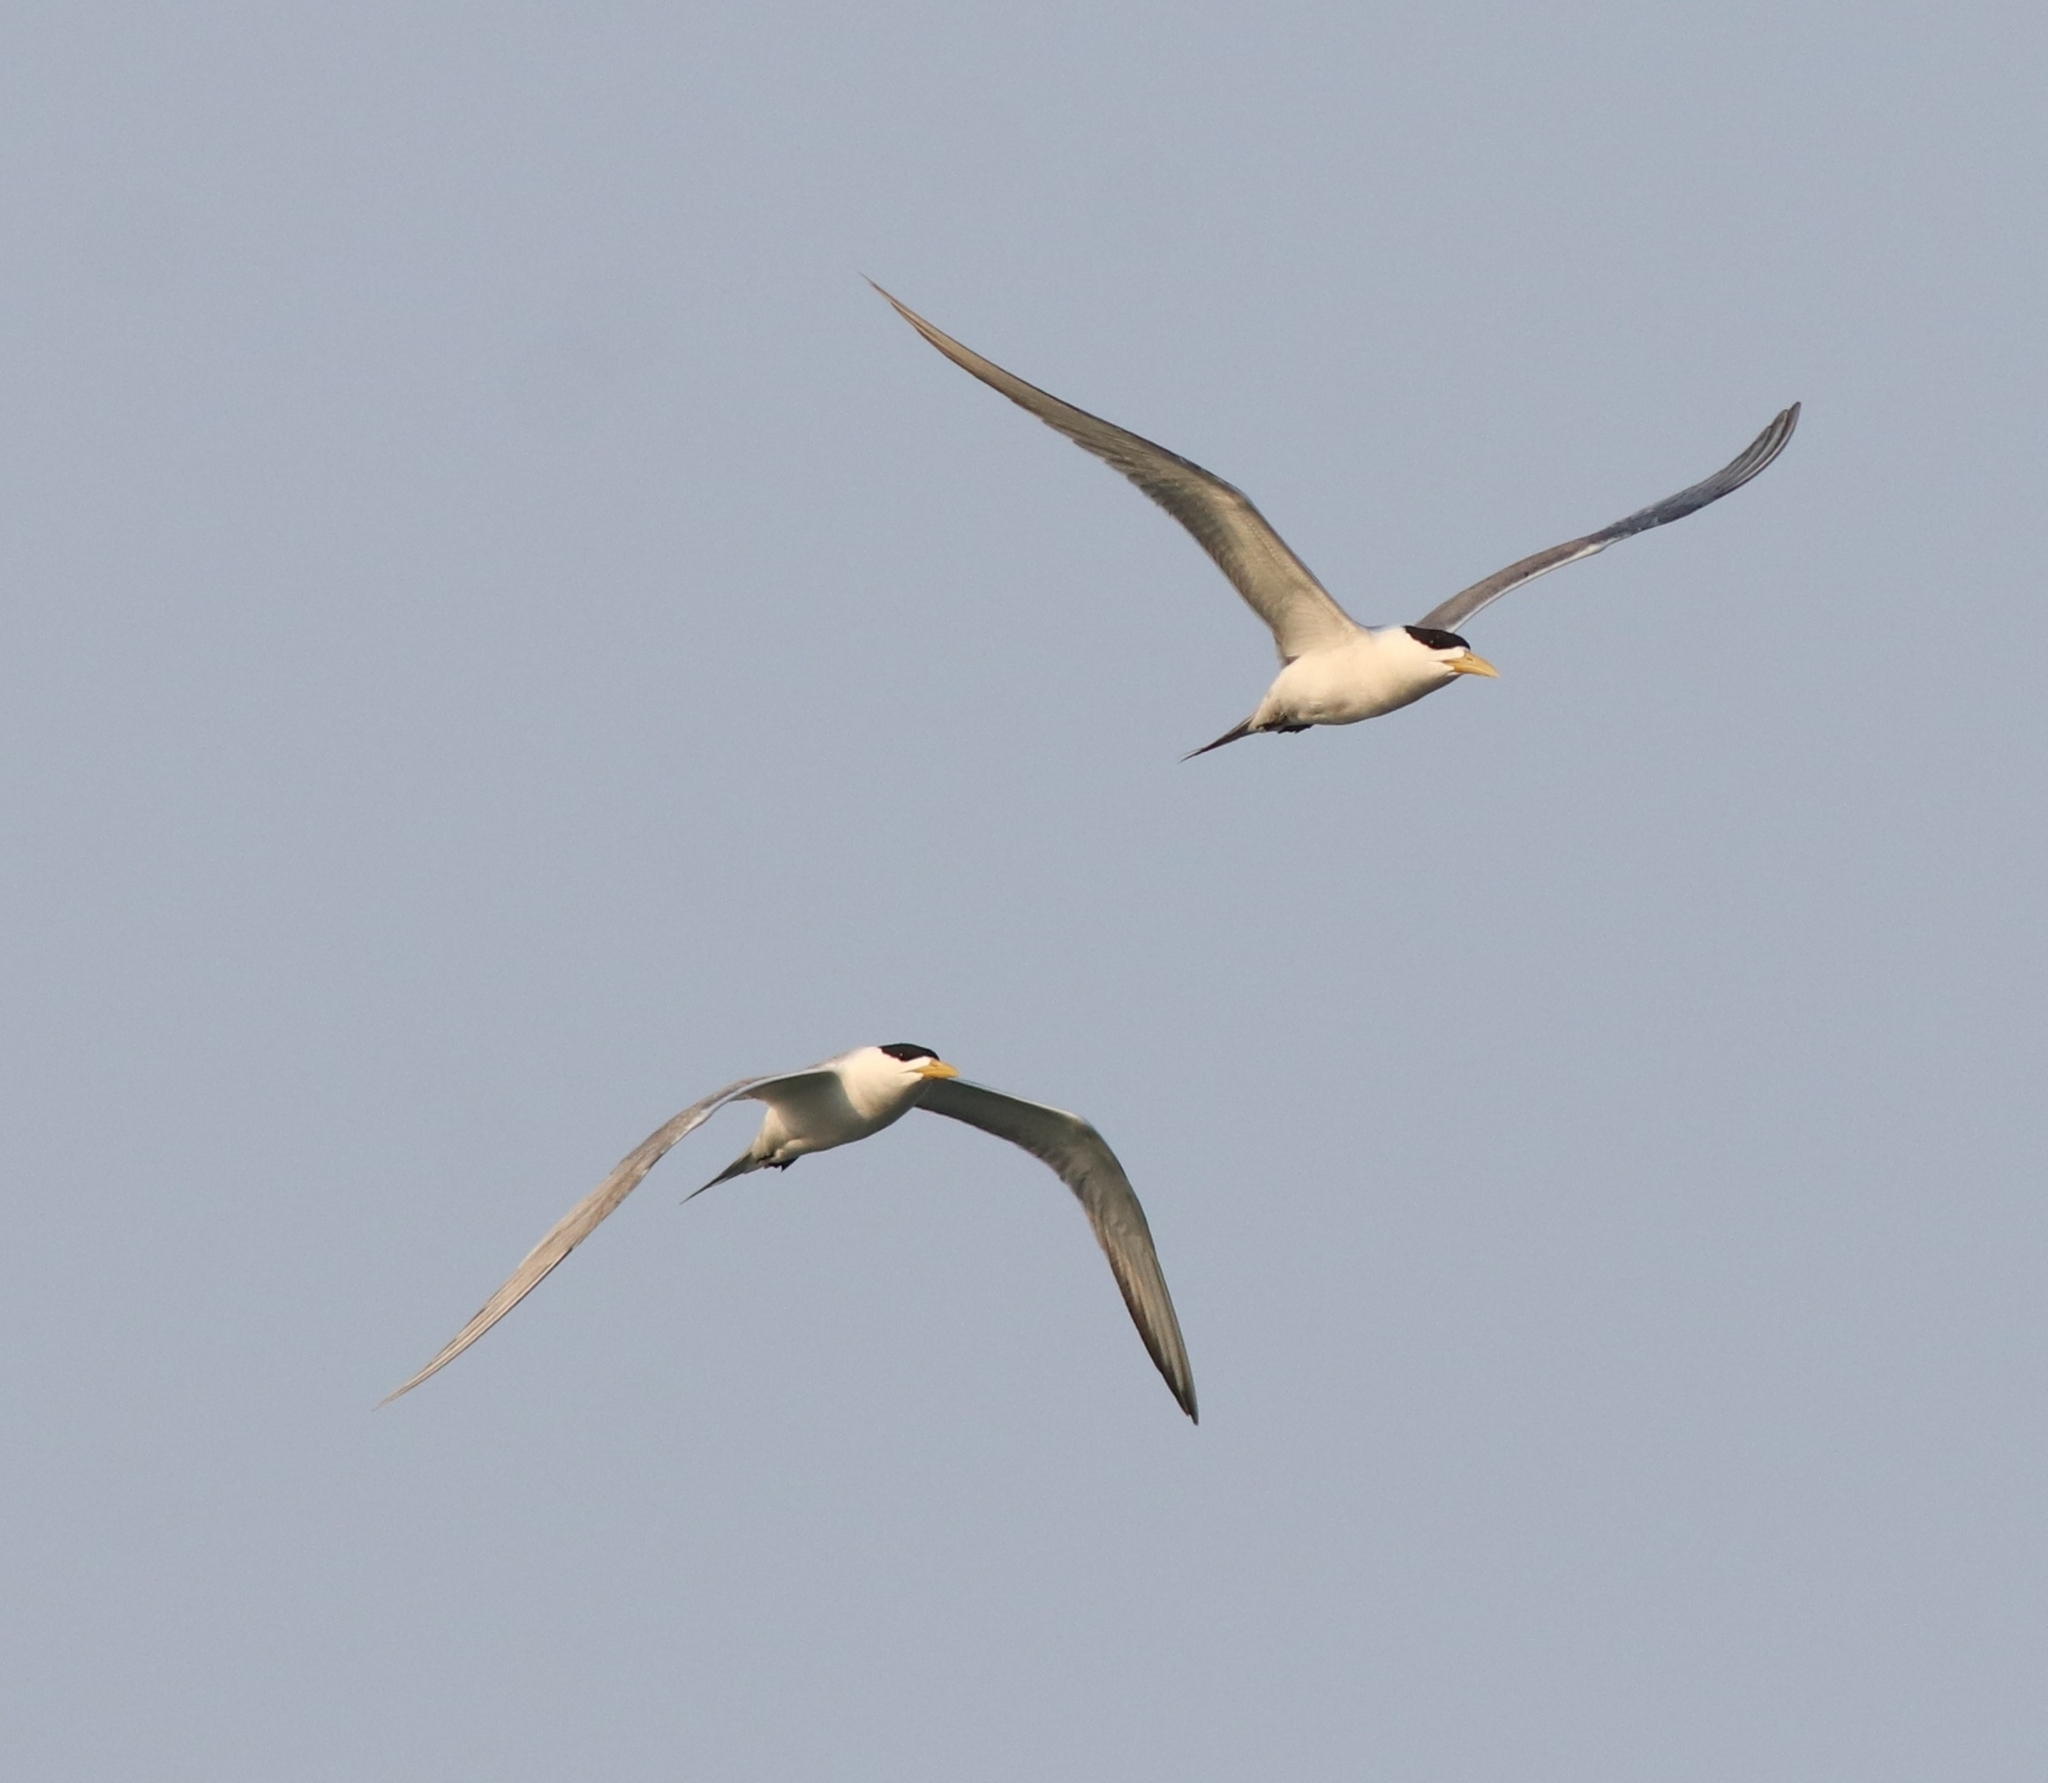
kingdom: Animalia
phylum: Chordata
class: Aves
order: Charadriiformes
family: Laridae
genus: Thalasseus
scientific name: Thalasseus bergii
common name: Greater crested tern
